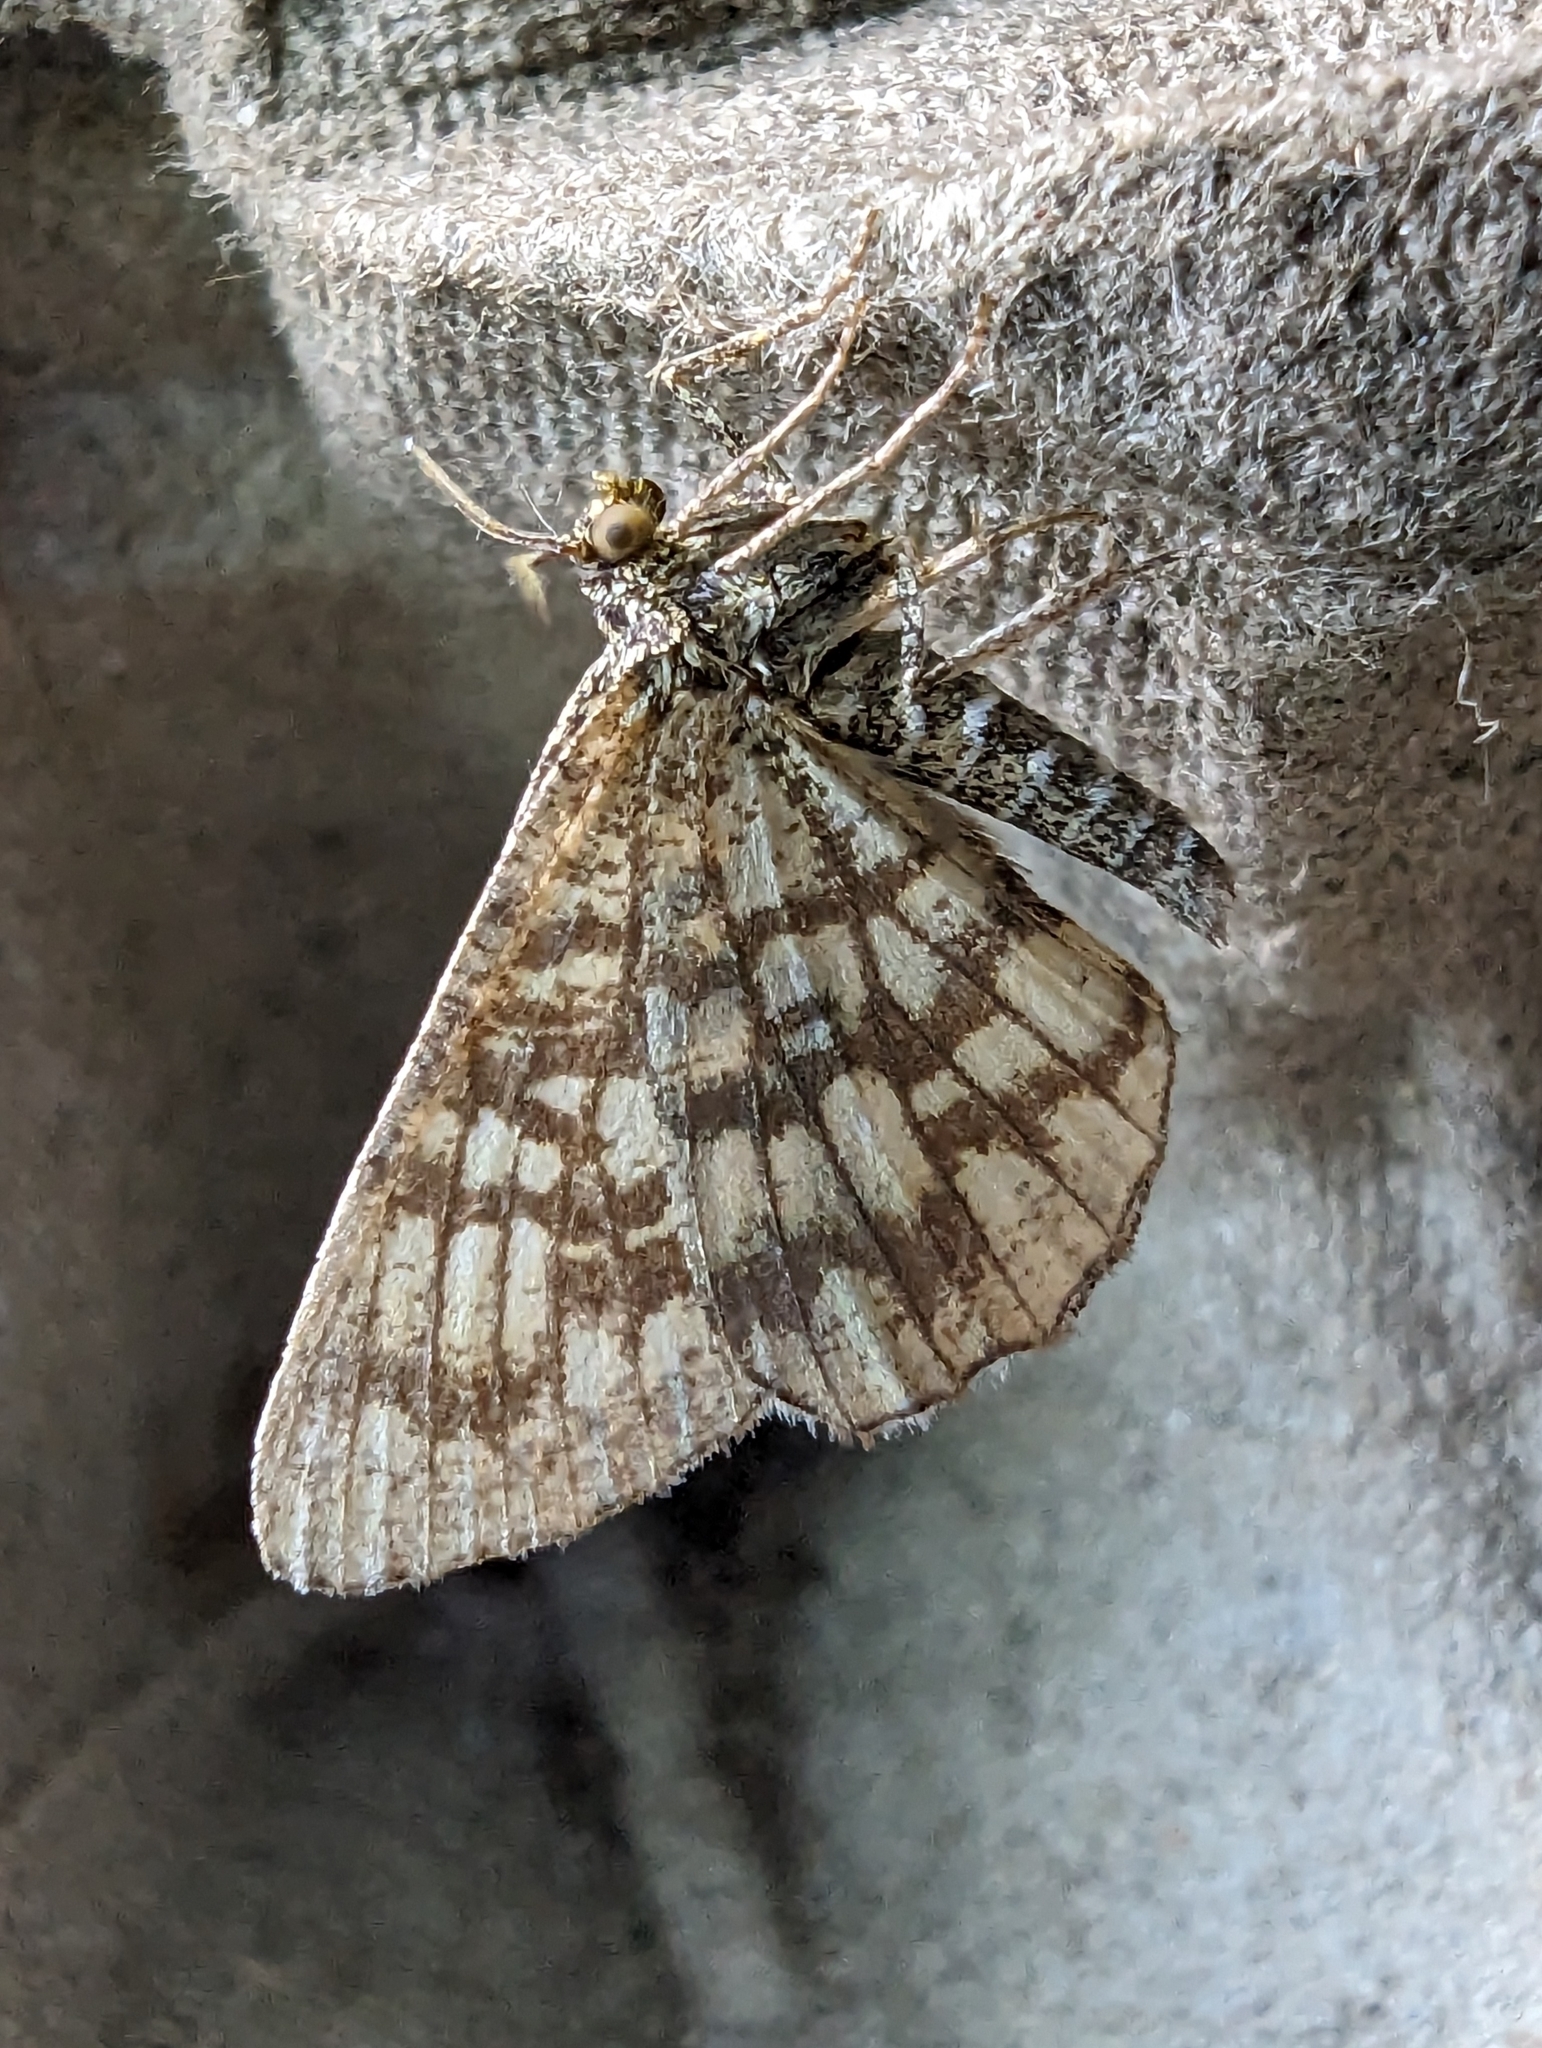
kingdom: Animalia
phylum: Arthropoda
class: Insecta
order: Lepidoptera
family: Geometridae
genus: Chiasmia
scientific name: Chiasmia clathrata
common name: Latticed heath
